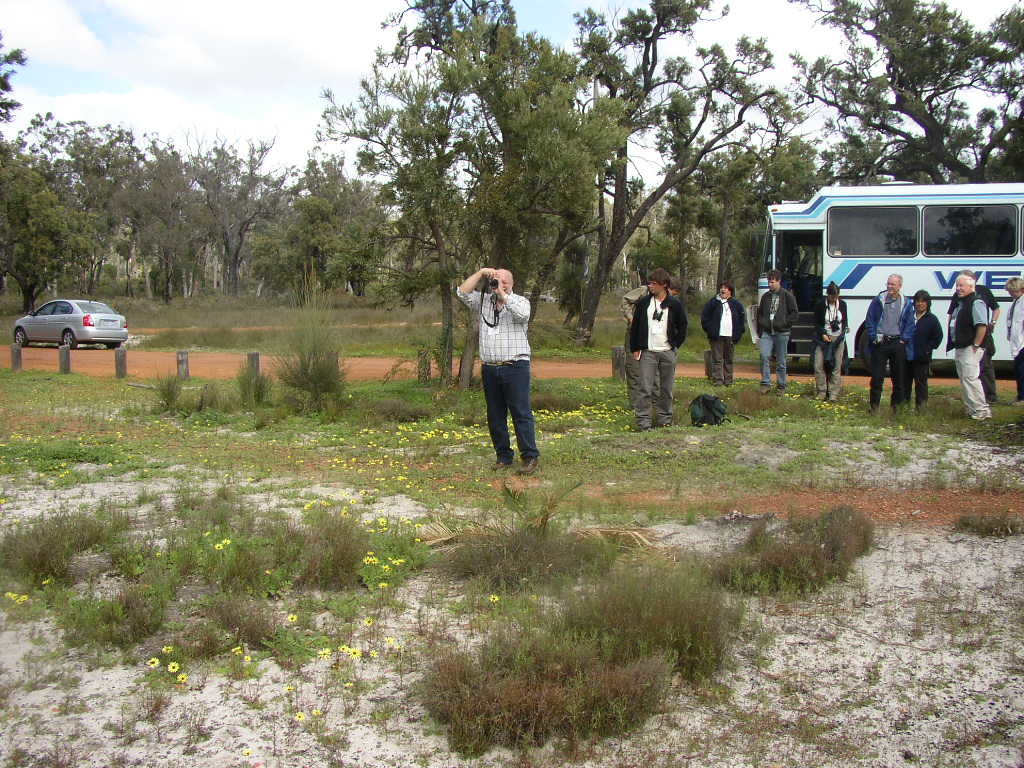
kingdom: Plantae
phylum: Tracheophyta
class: Magnoliopsida
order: Santalales
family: Loranthaceae
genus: Nuytsia
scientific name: Nuytsia floribunda
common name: Western australian christmastree
